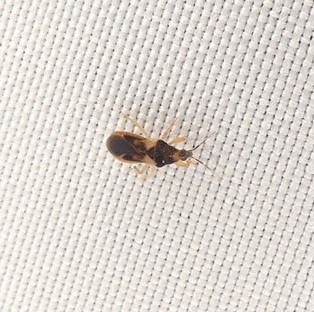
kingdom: Animalia
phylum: Arthropoda
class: Insecta
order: Hemiptera
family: Nabidae
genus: Phorticus
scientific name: Phorticus collaris
